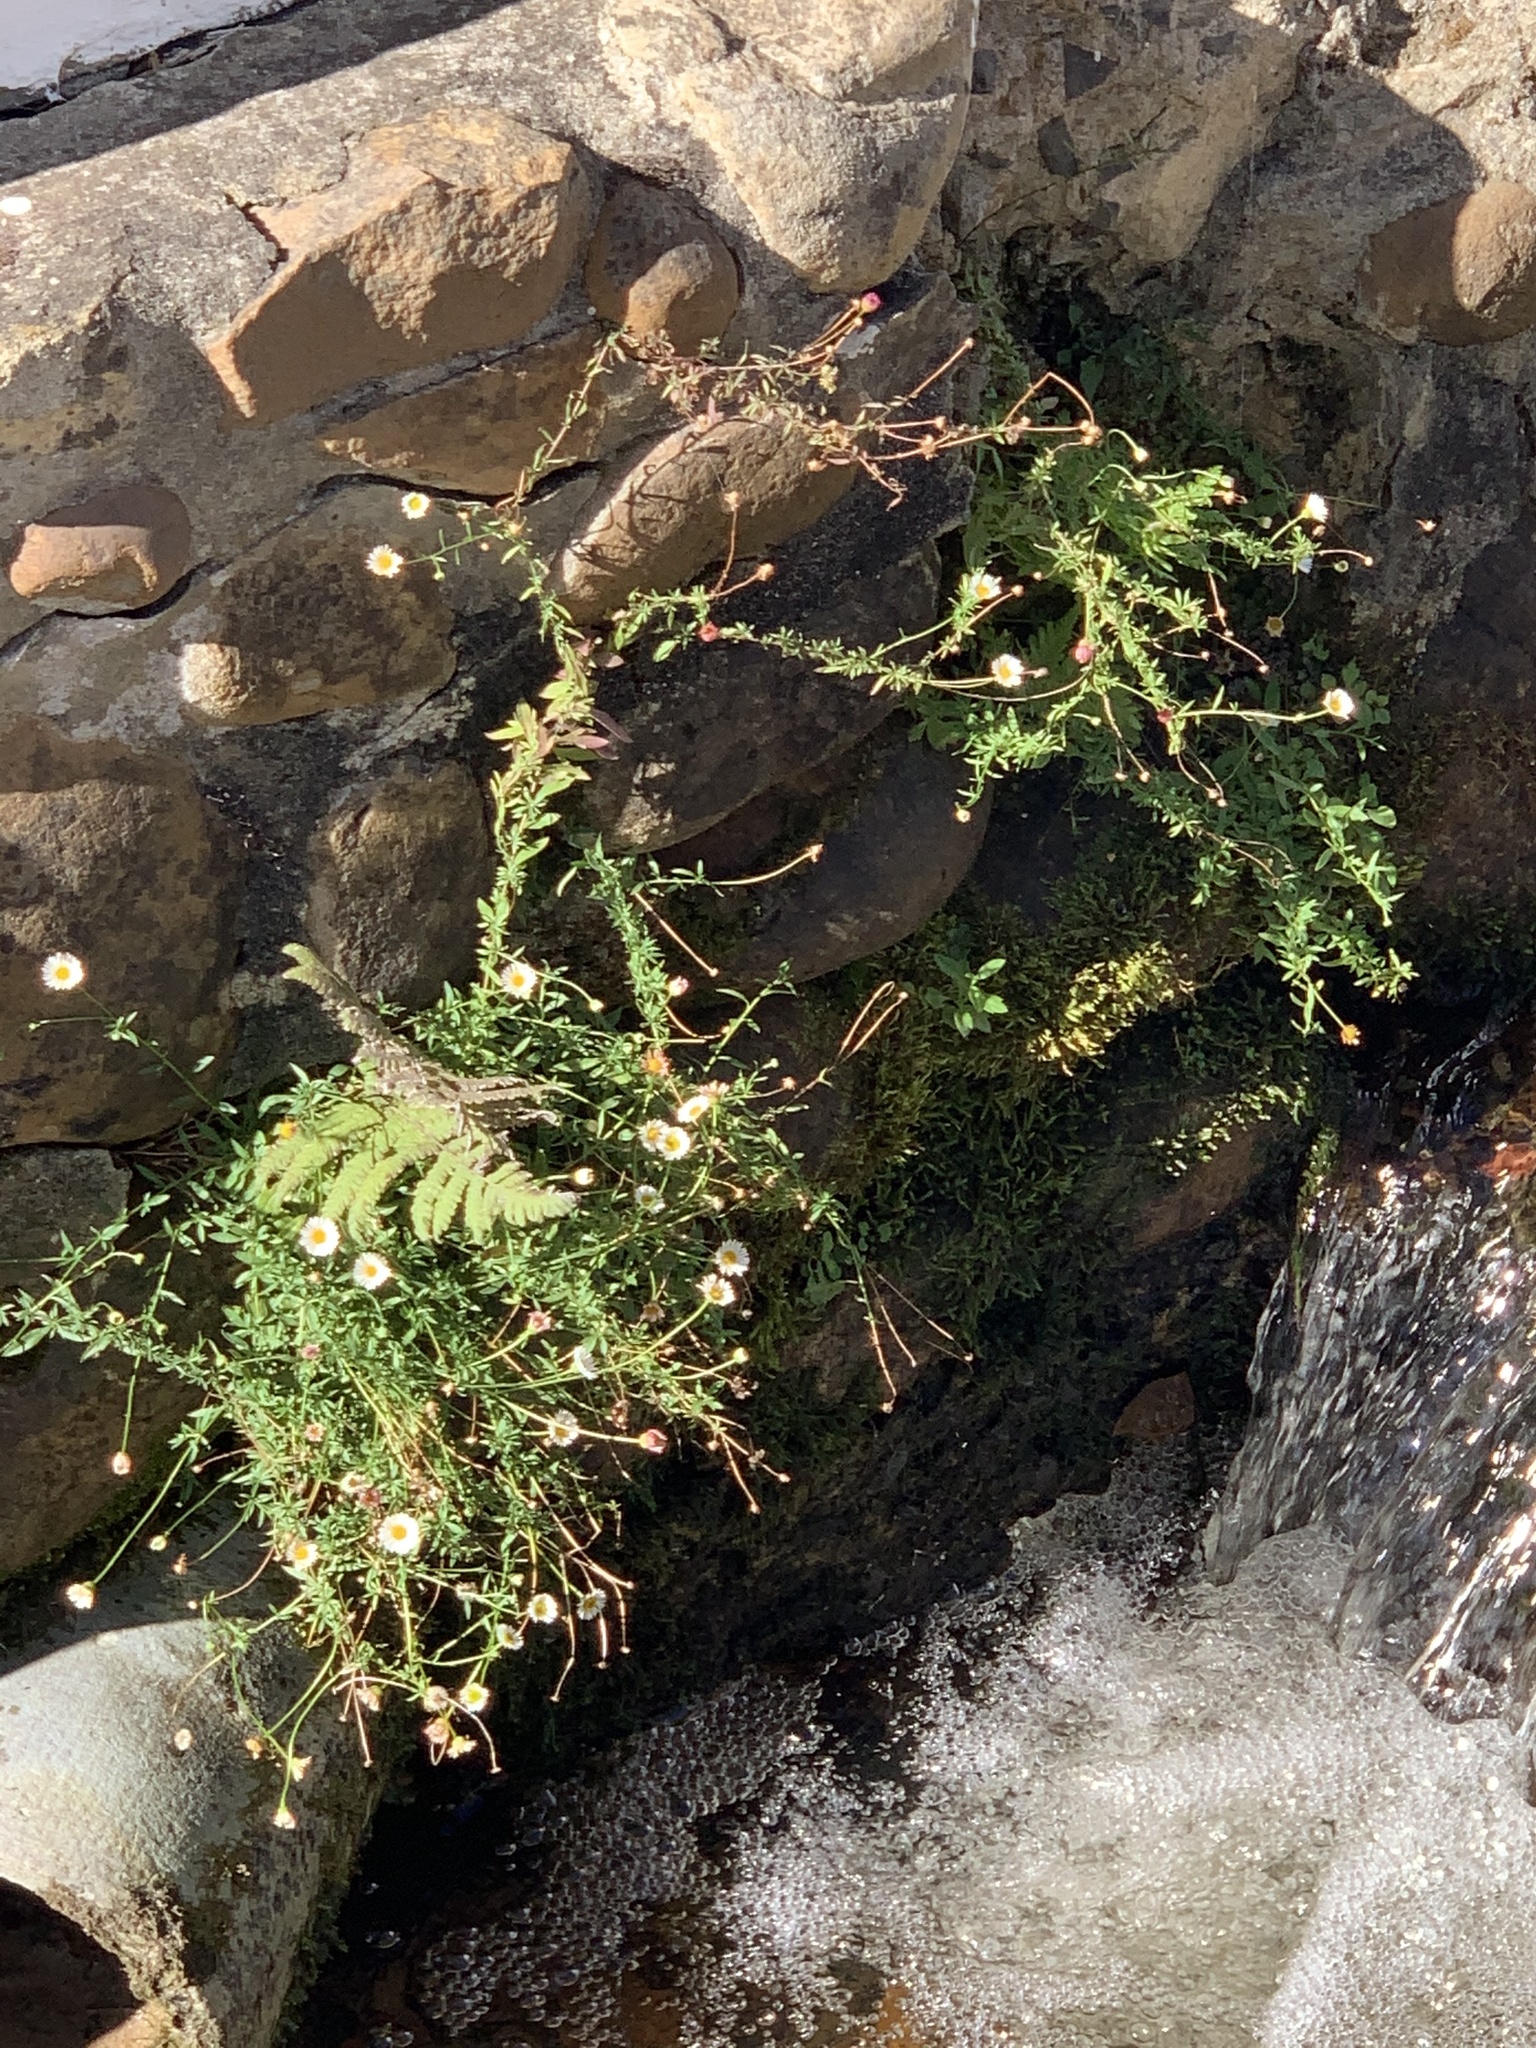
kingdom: Plantae
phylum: Tracheophyta
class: Magnoliopsida
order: Asterales
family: Asteraceae
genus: Erigeron
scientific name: Erigeron karvinskianus
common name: Mexican fleabane
